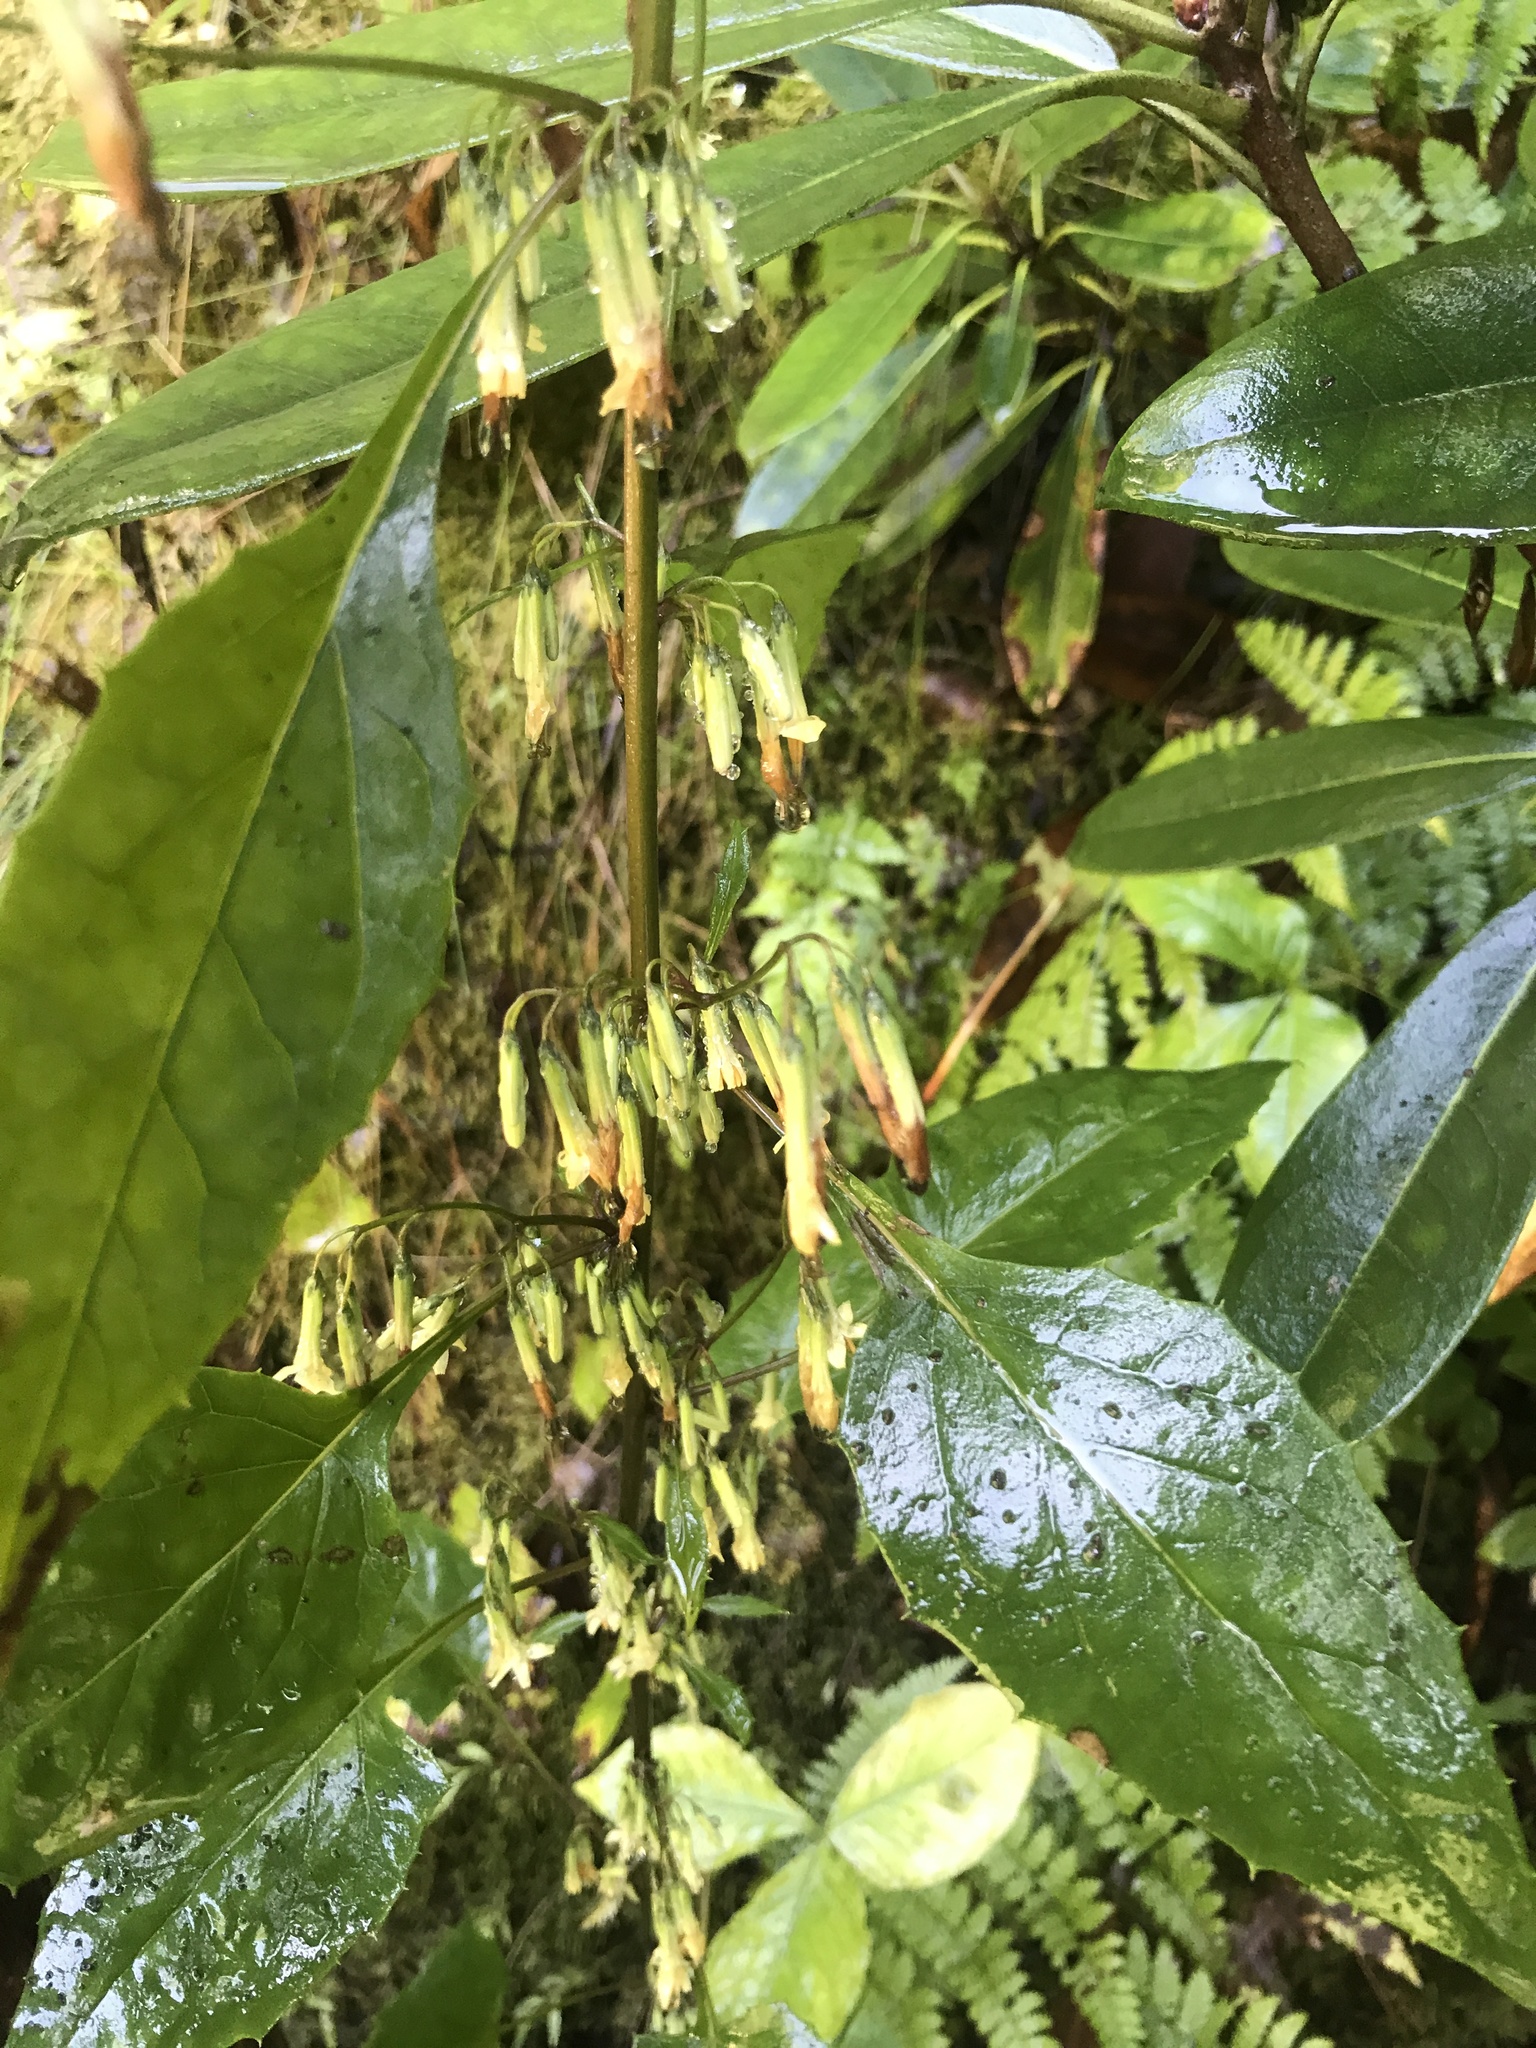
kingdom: Plantae
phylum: Tracheophyta
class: Magnoliopsida
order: Asterales
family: Asteraceae
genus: Nabalus
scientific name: Nabalus altissima
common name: Tall rattlesnakeroot
